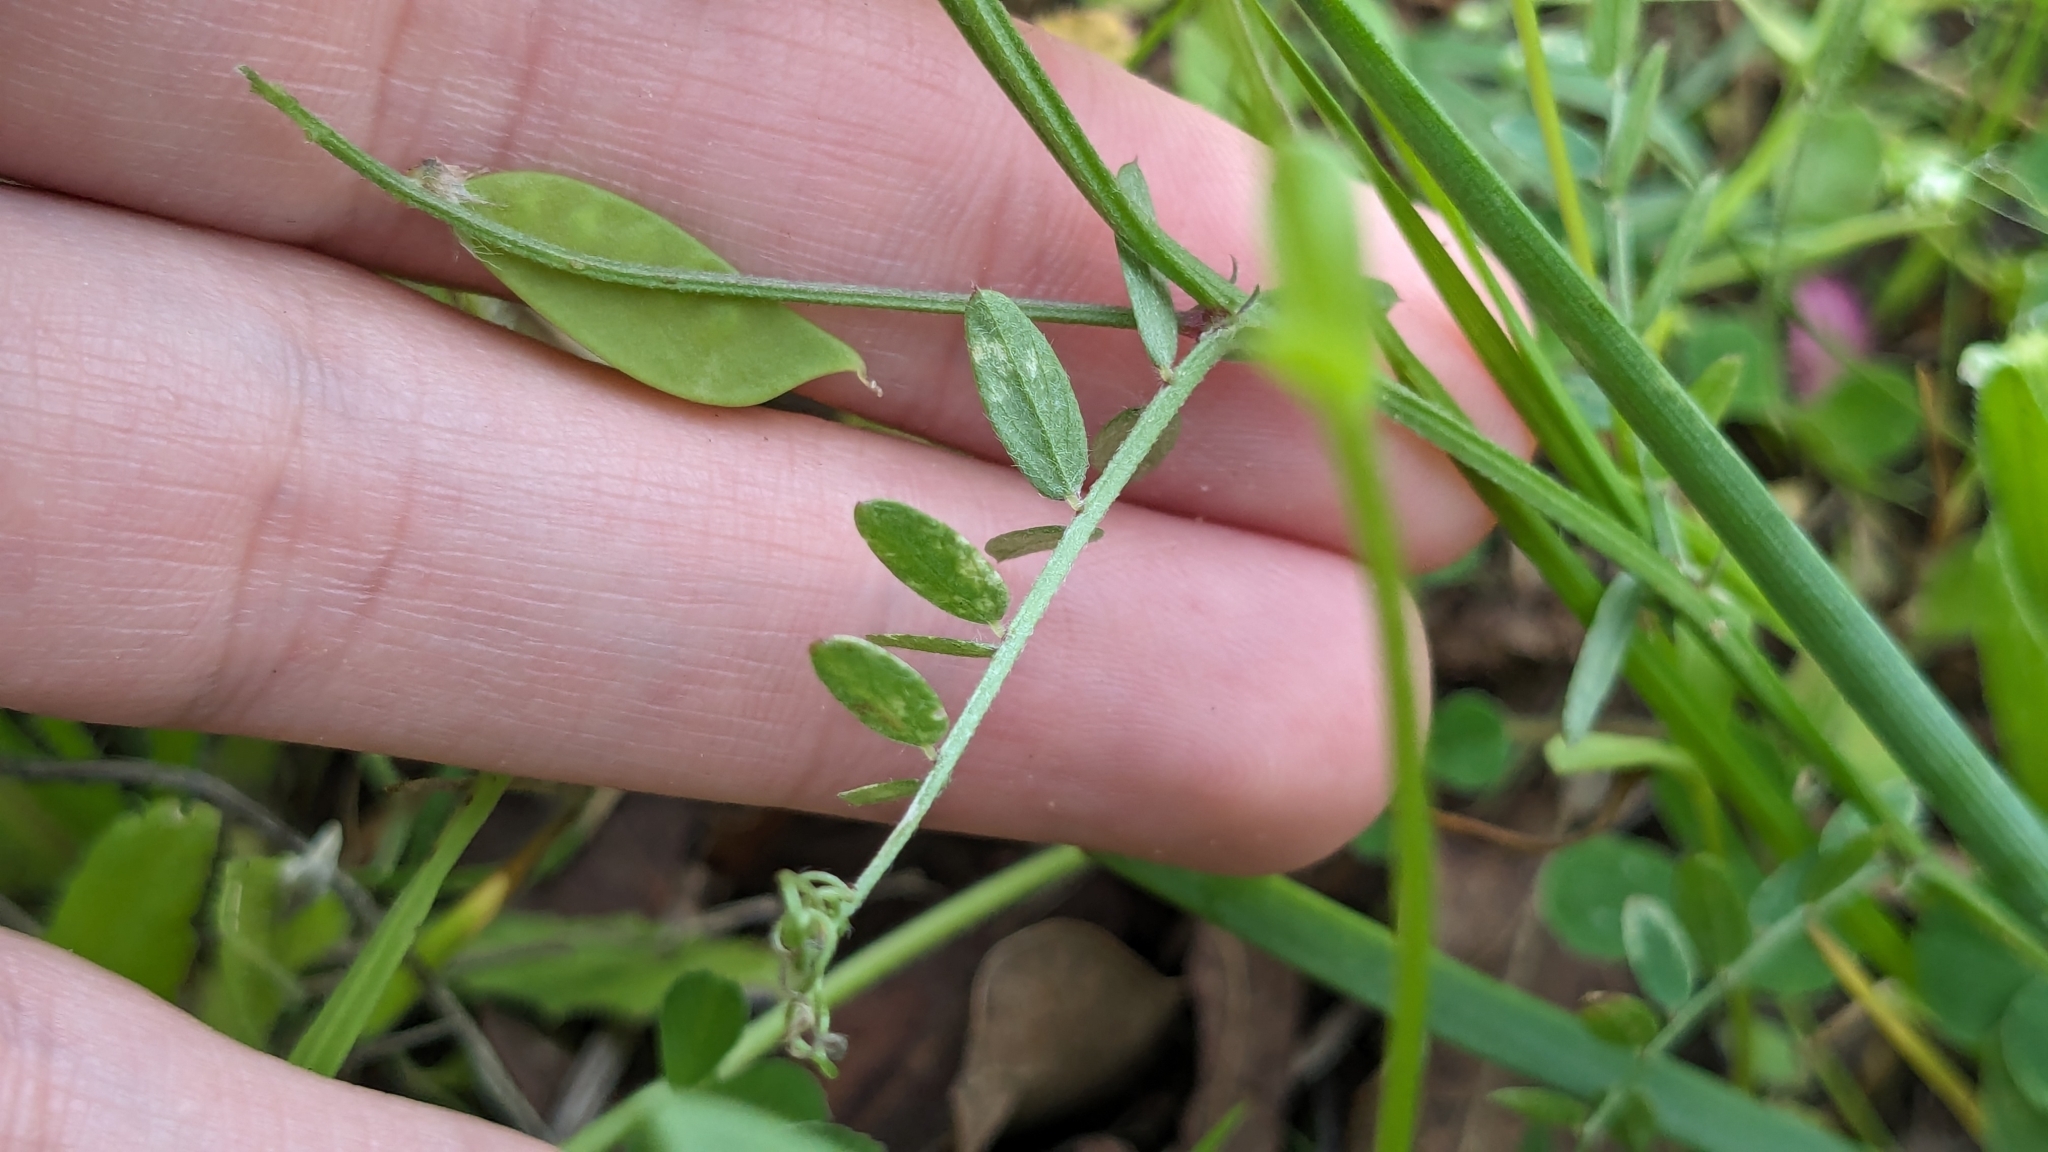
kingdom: Plantae
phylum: Tracheophyta
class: Magnoliopsida
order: Fabales
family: Fabaceae
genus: Vicia
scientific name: Vicia ludoviciana
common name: Louisiana vetch
